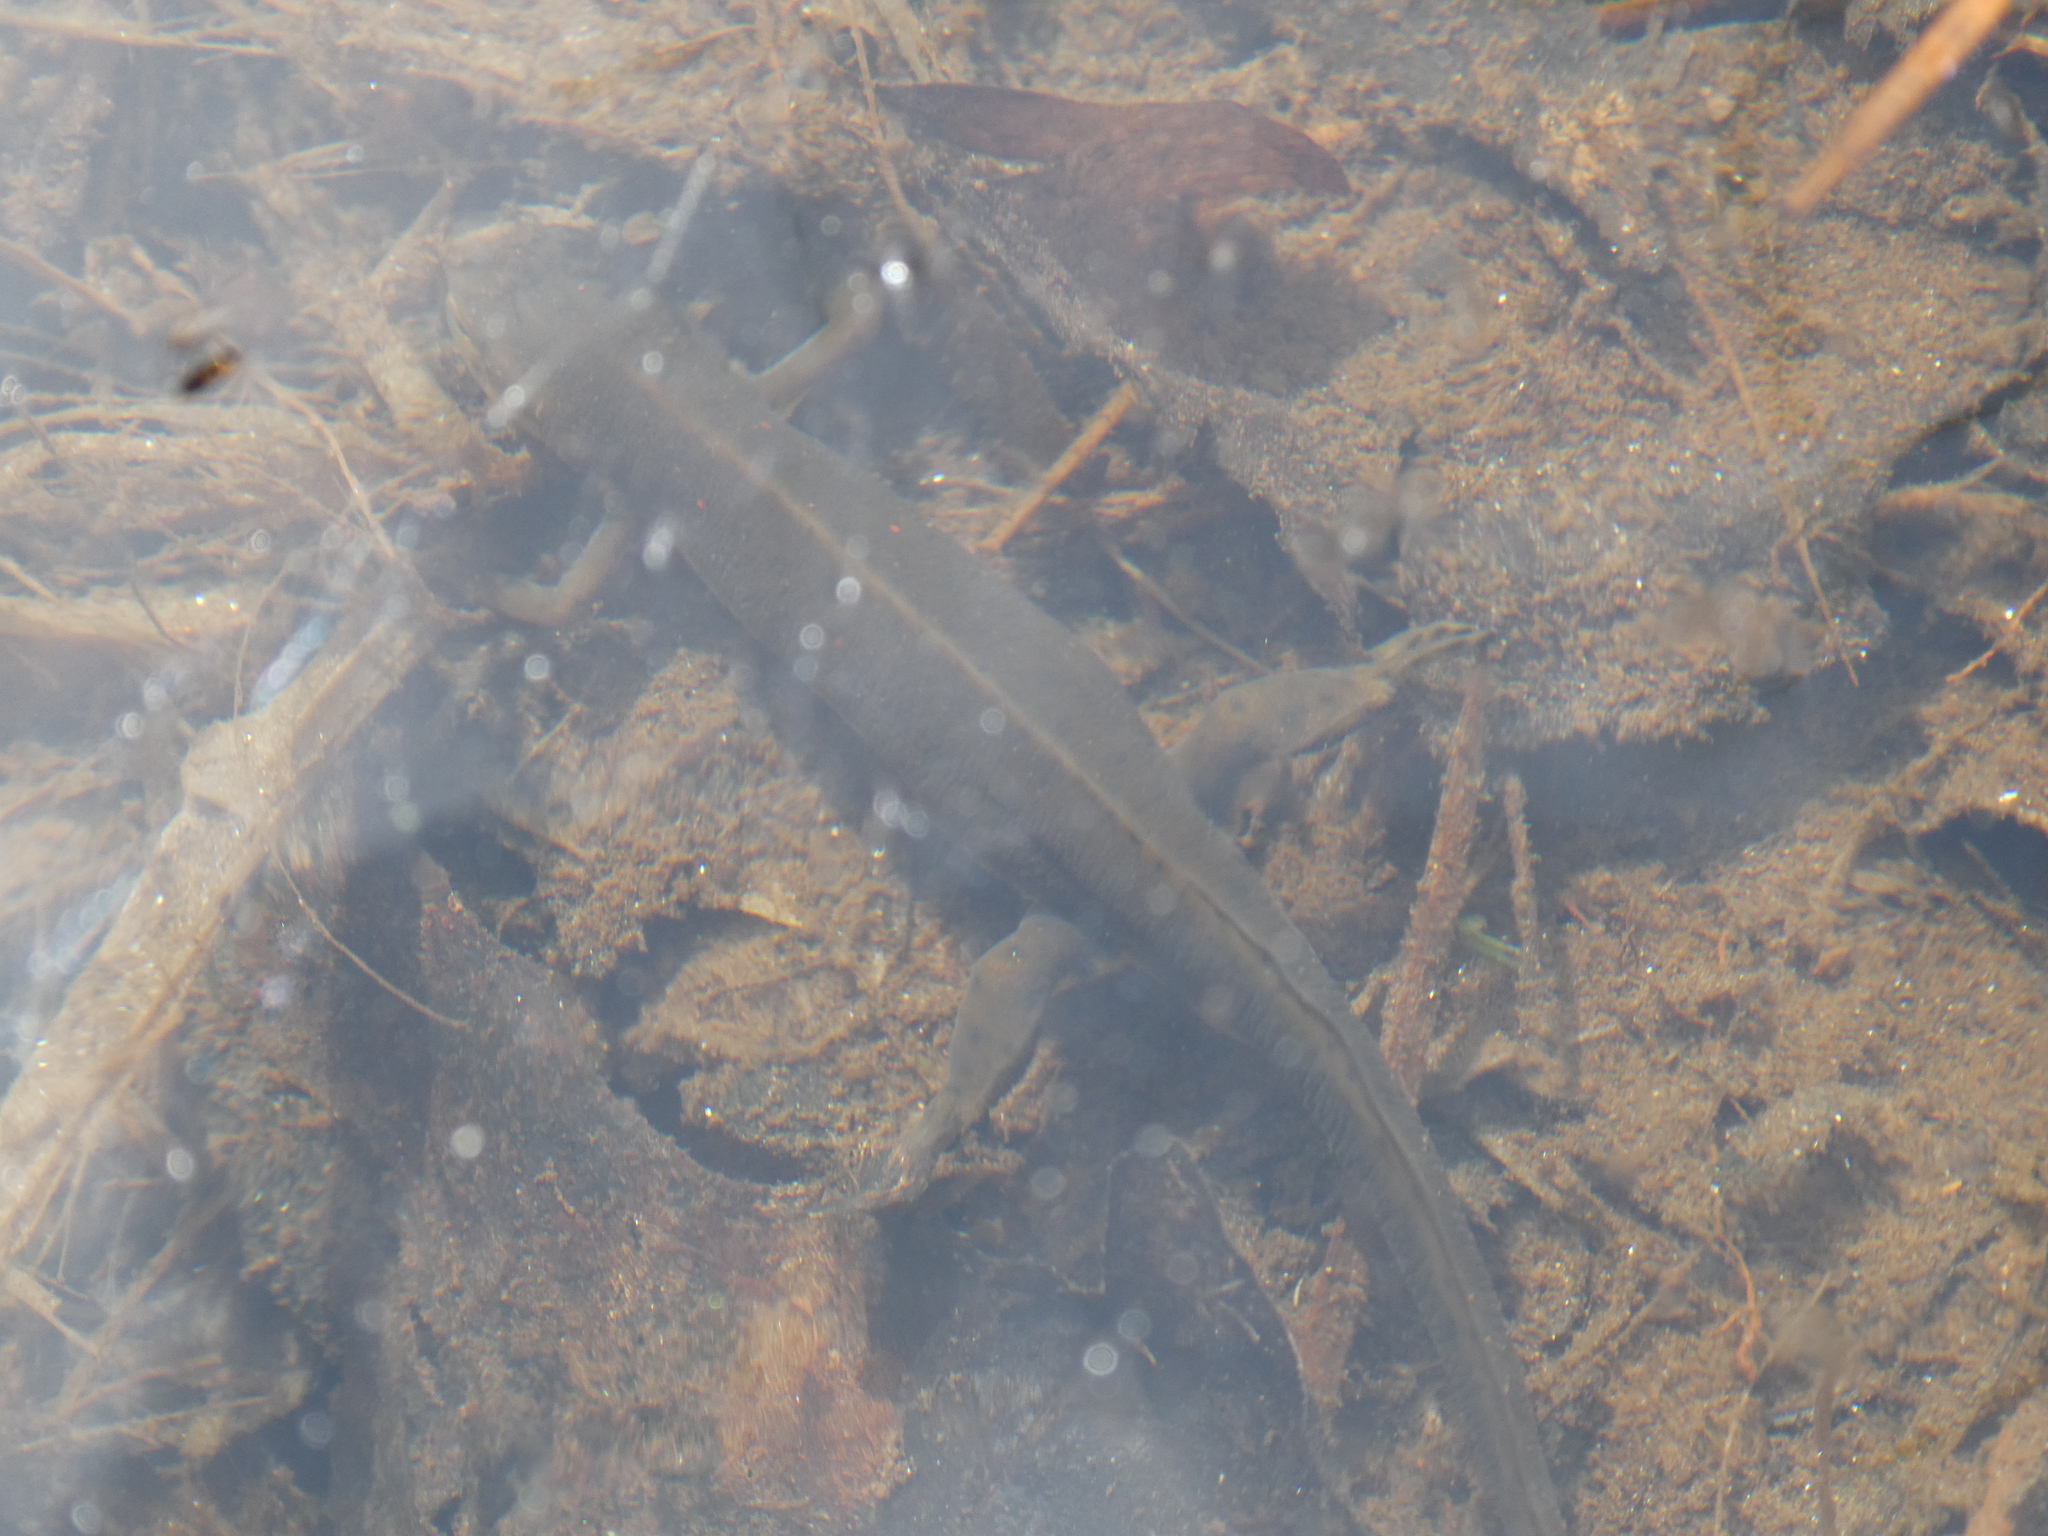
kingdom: Animalia
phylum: Chordata
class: Amphibia
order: Caudata
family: Salamandridae
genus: Notophthalmus
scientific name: Notophthalmus viridescens
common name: Eastern newt
